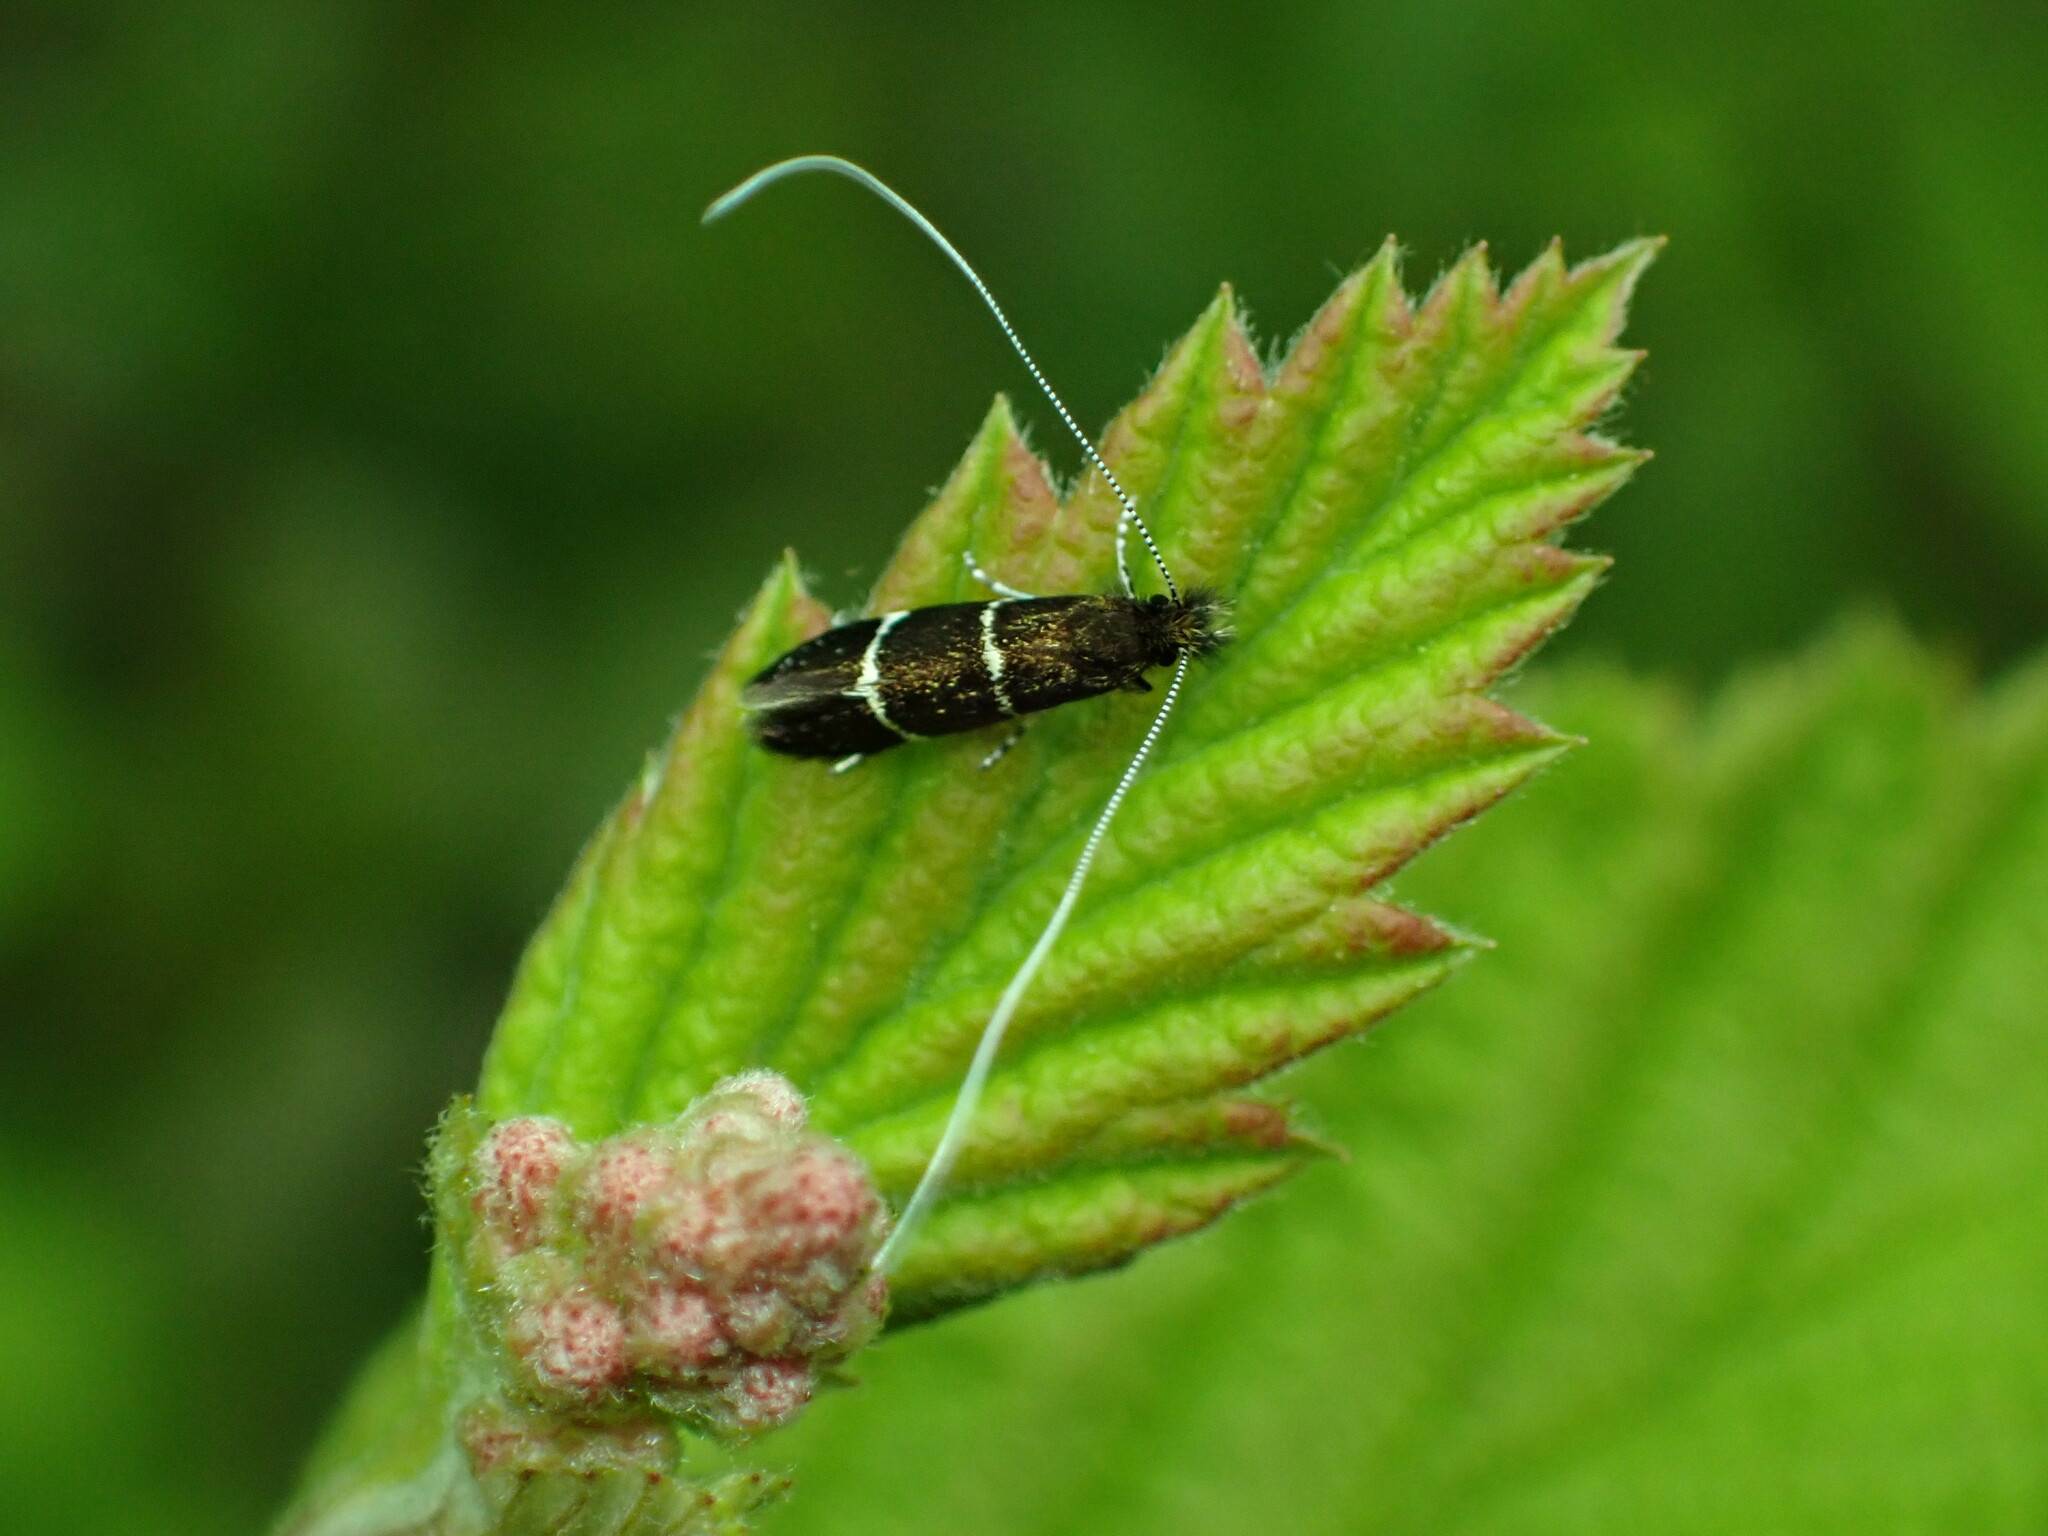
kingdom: Animalia
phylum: Arthropoda
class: Insecta
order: Lepidoptera
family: Adelidae
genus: Adela
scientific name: Adela septentrionella
